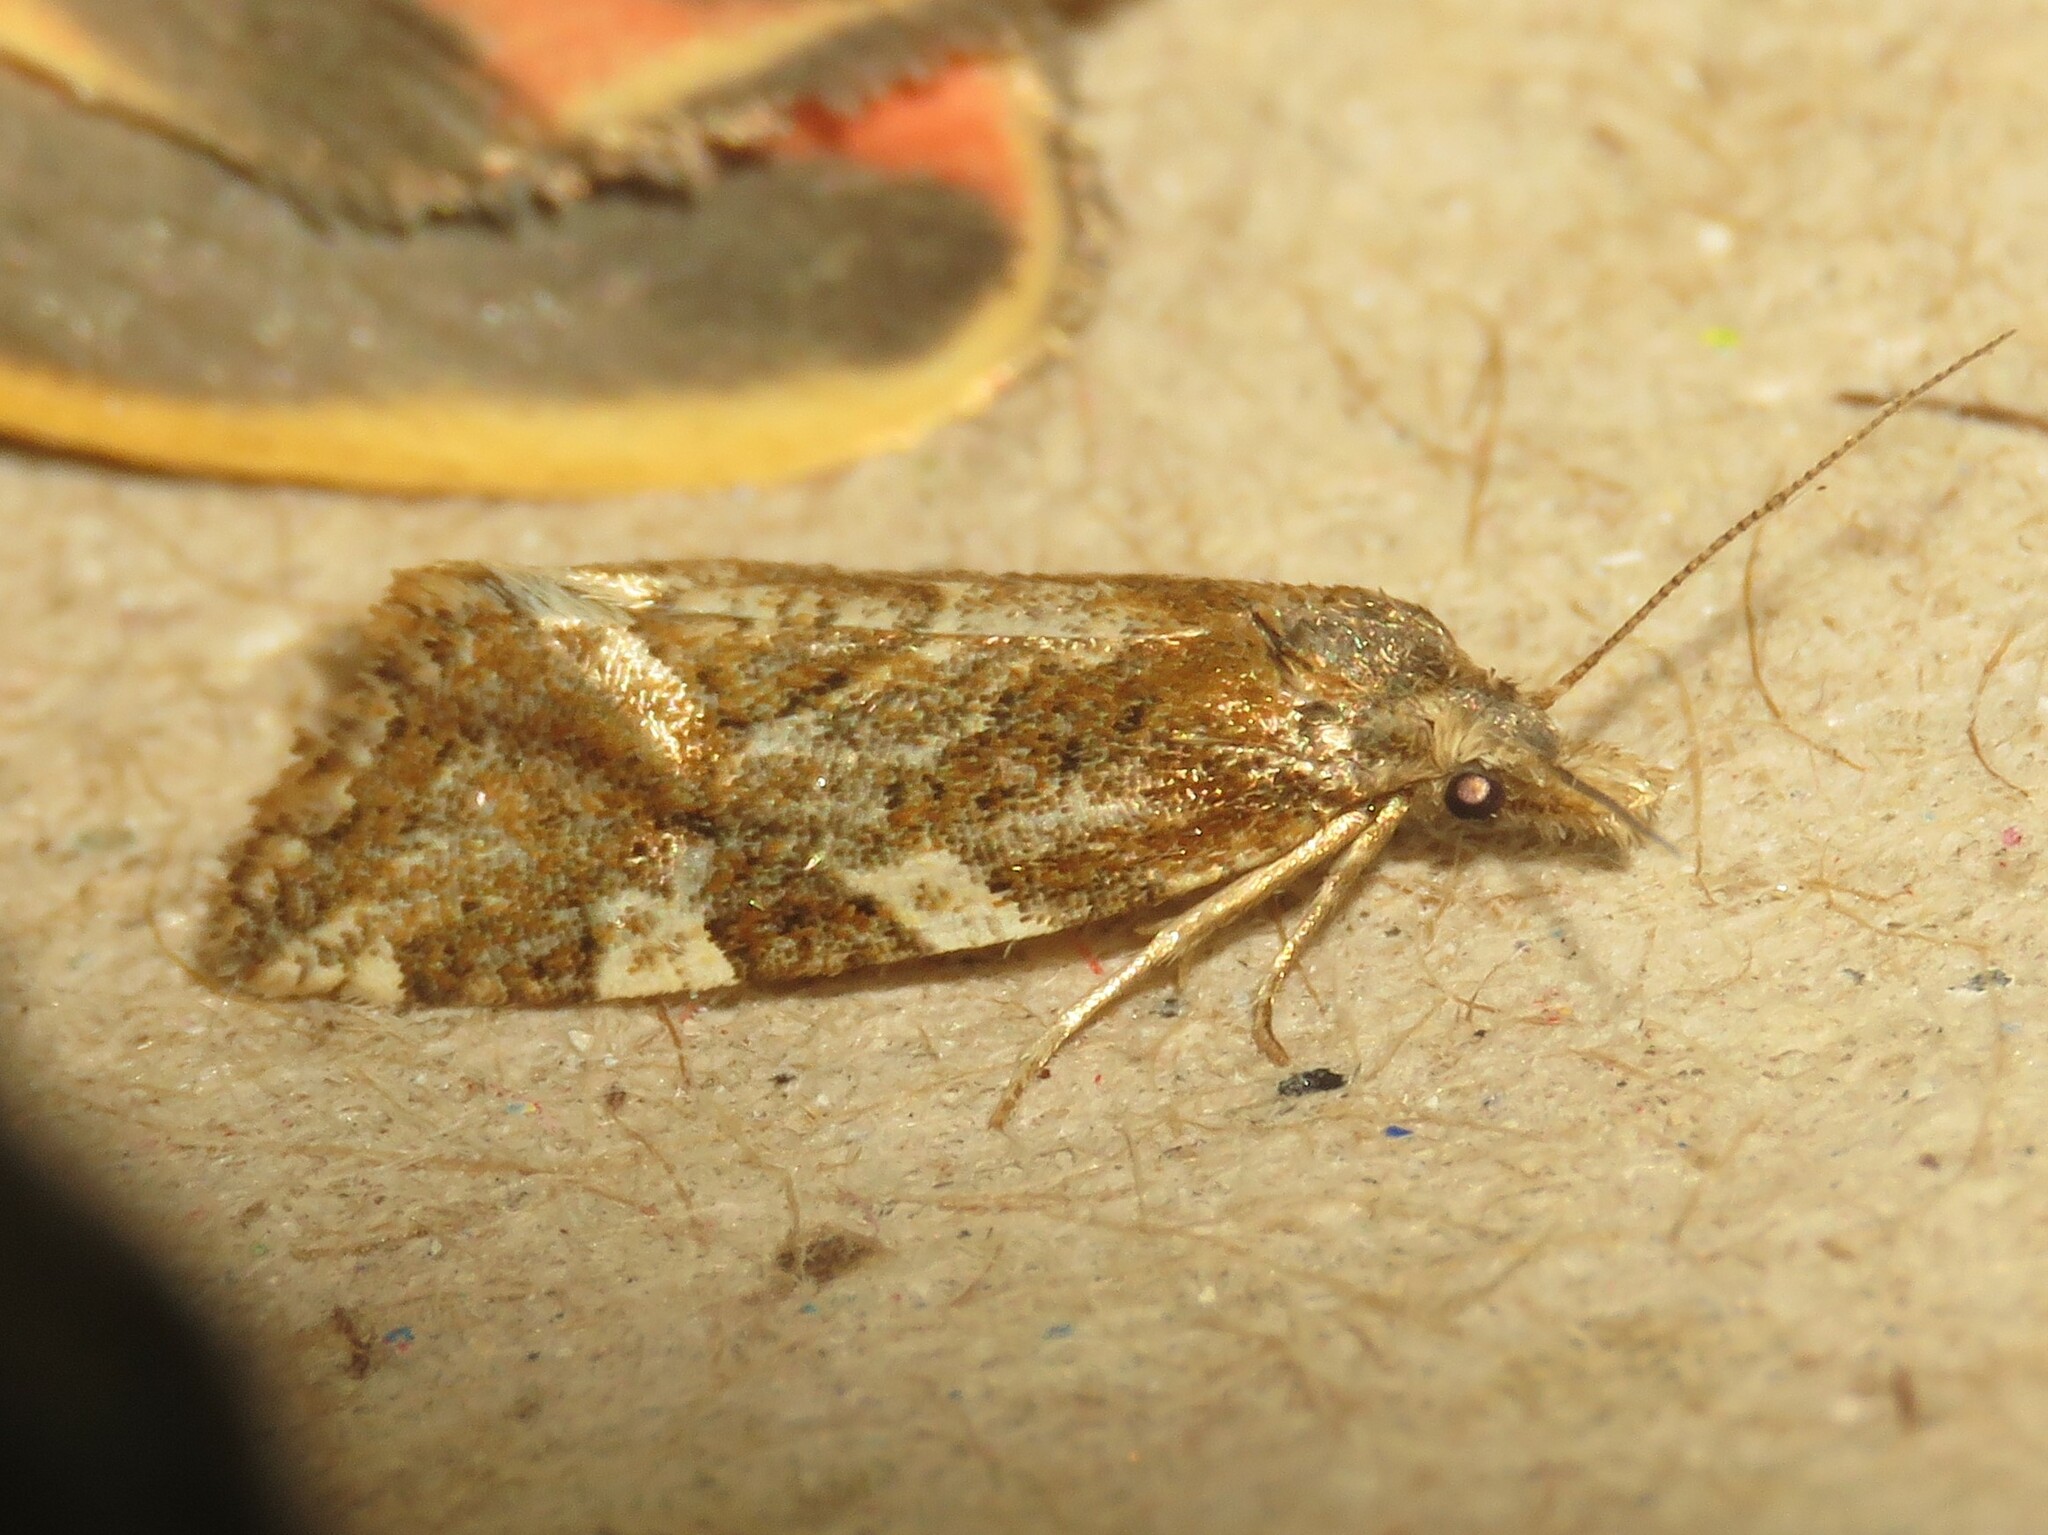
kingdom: Animalia
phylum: Arthropoda
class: Insecta
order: Lepidoptera
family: Tortricidae
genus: Aethes
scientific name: Aethes sexdentata
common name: Six-toothed aethes
